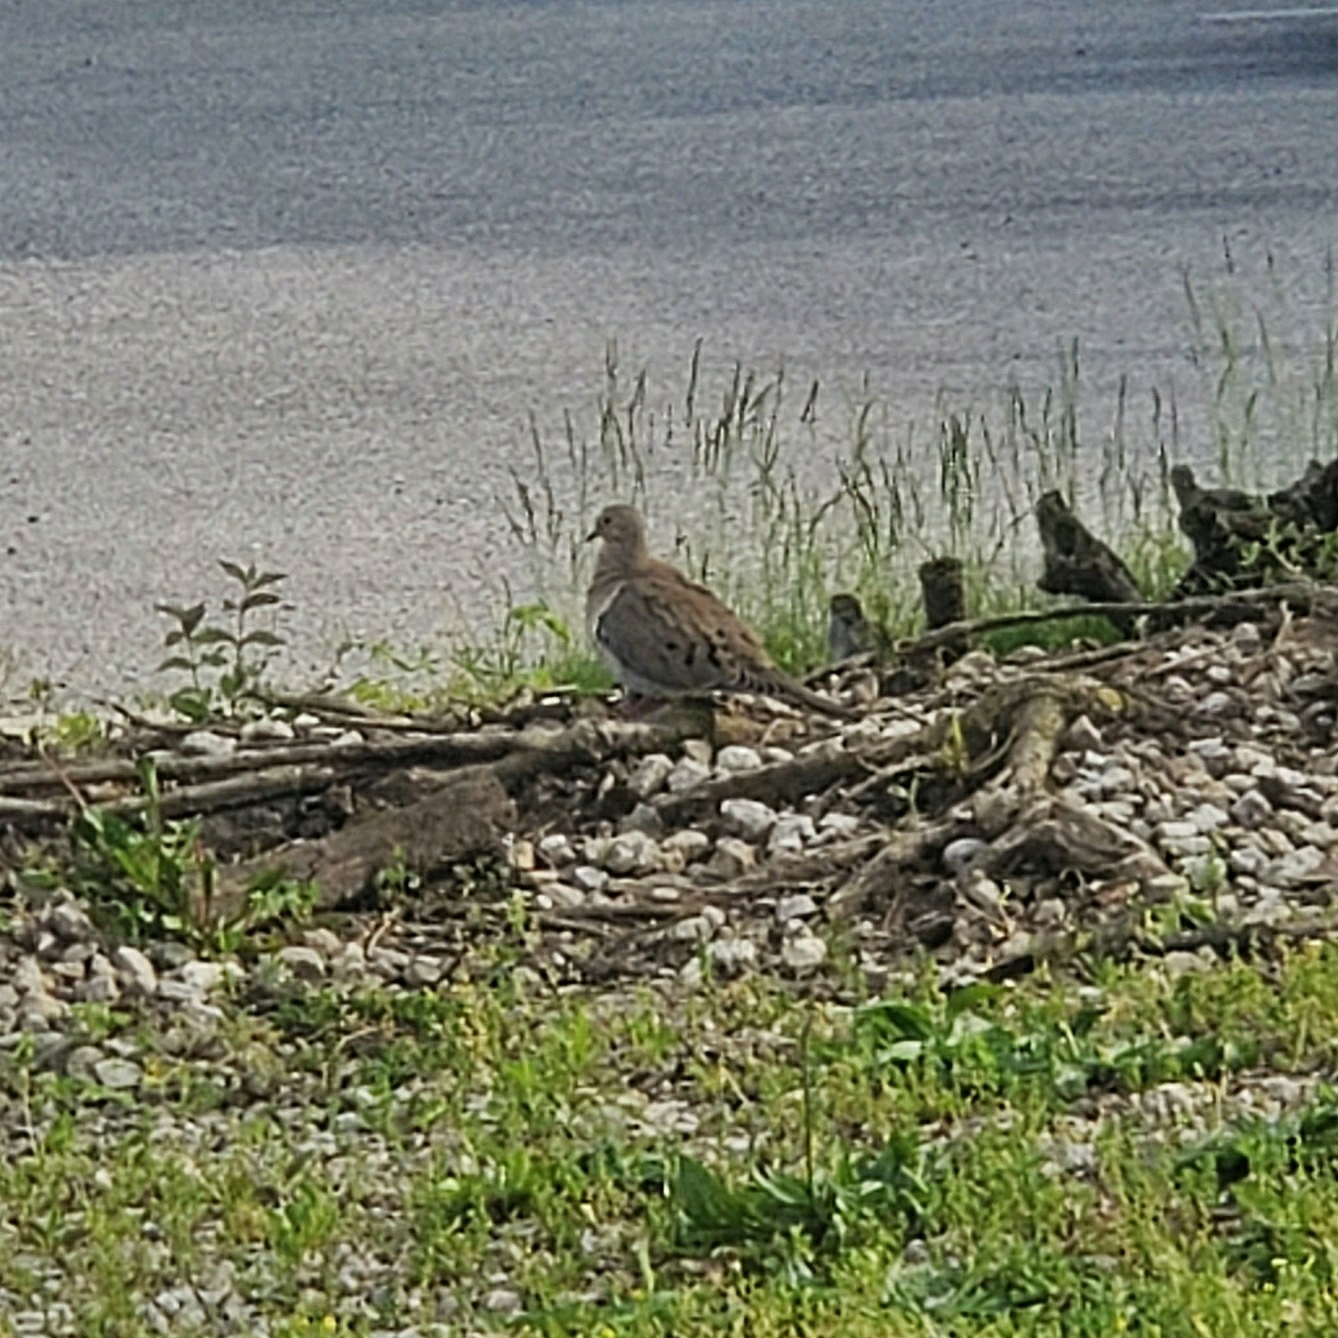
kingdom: Animalia
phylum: Chordata
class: Aves
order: Columbiformes
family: Columbidae
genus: Zenaida
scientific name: Zenaida macroura
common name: Mourning dove
